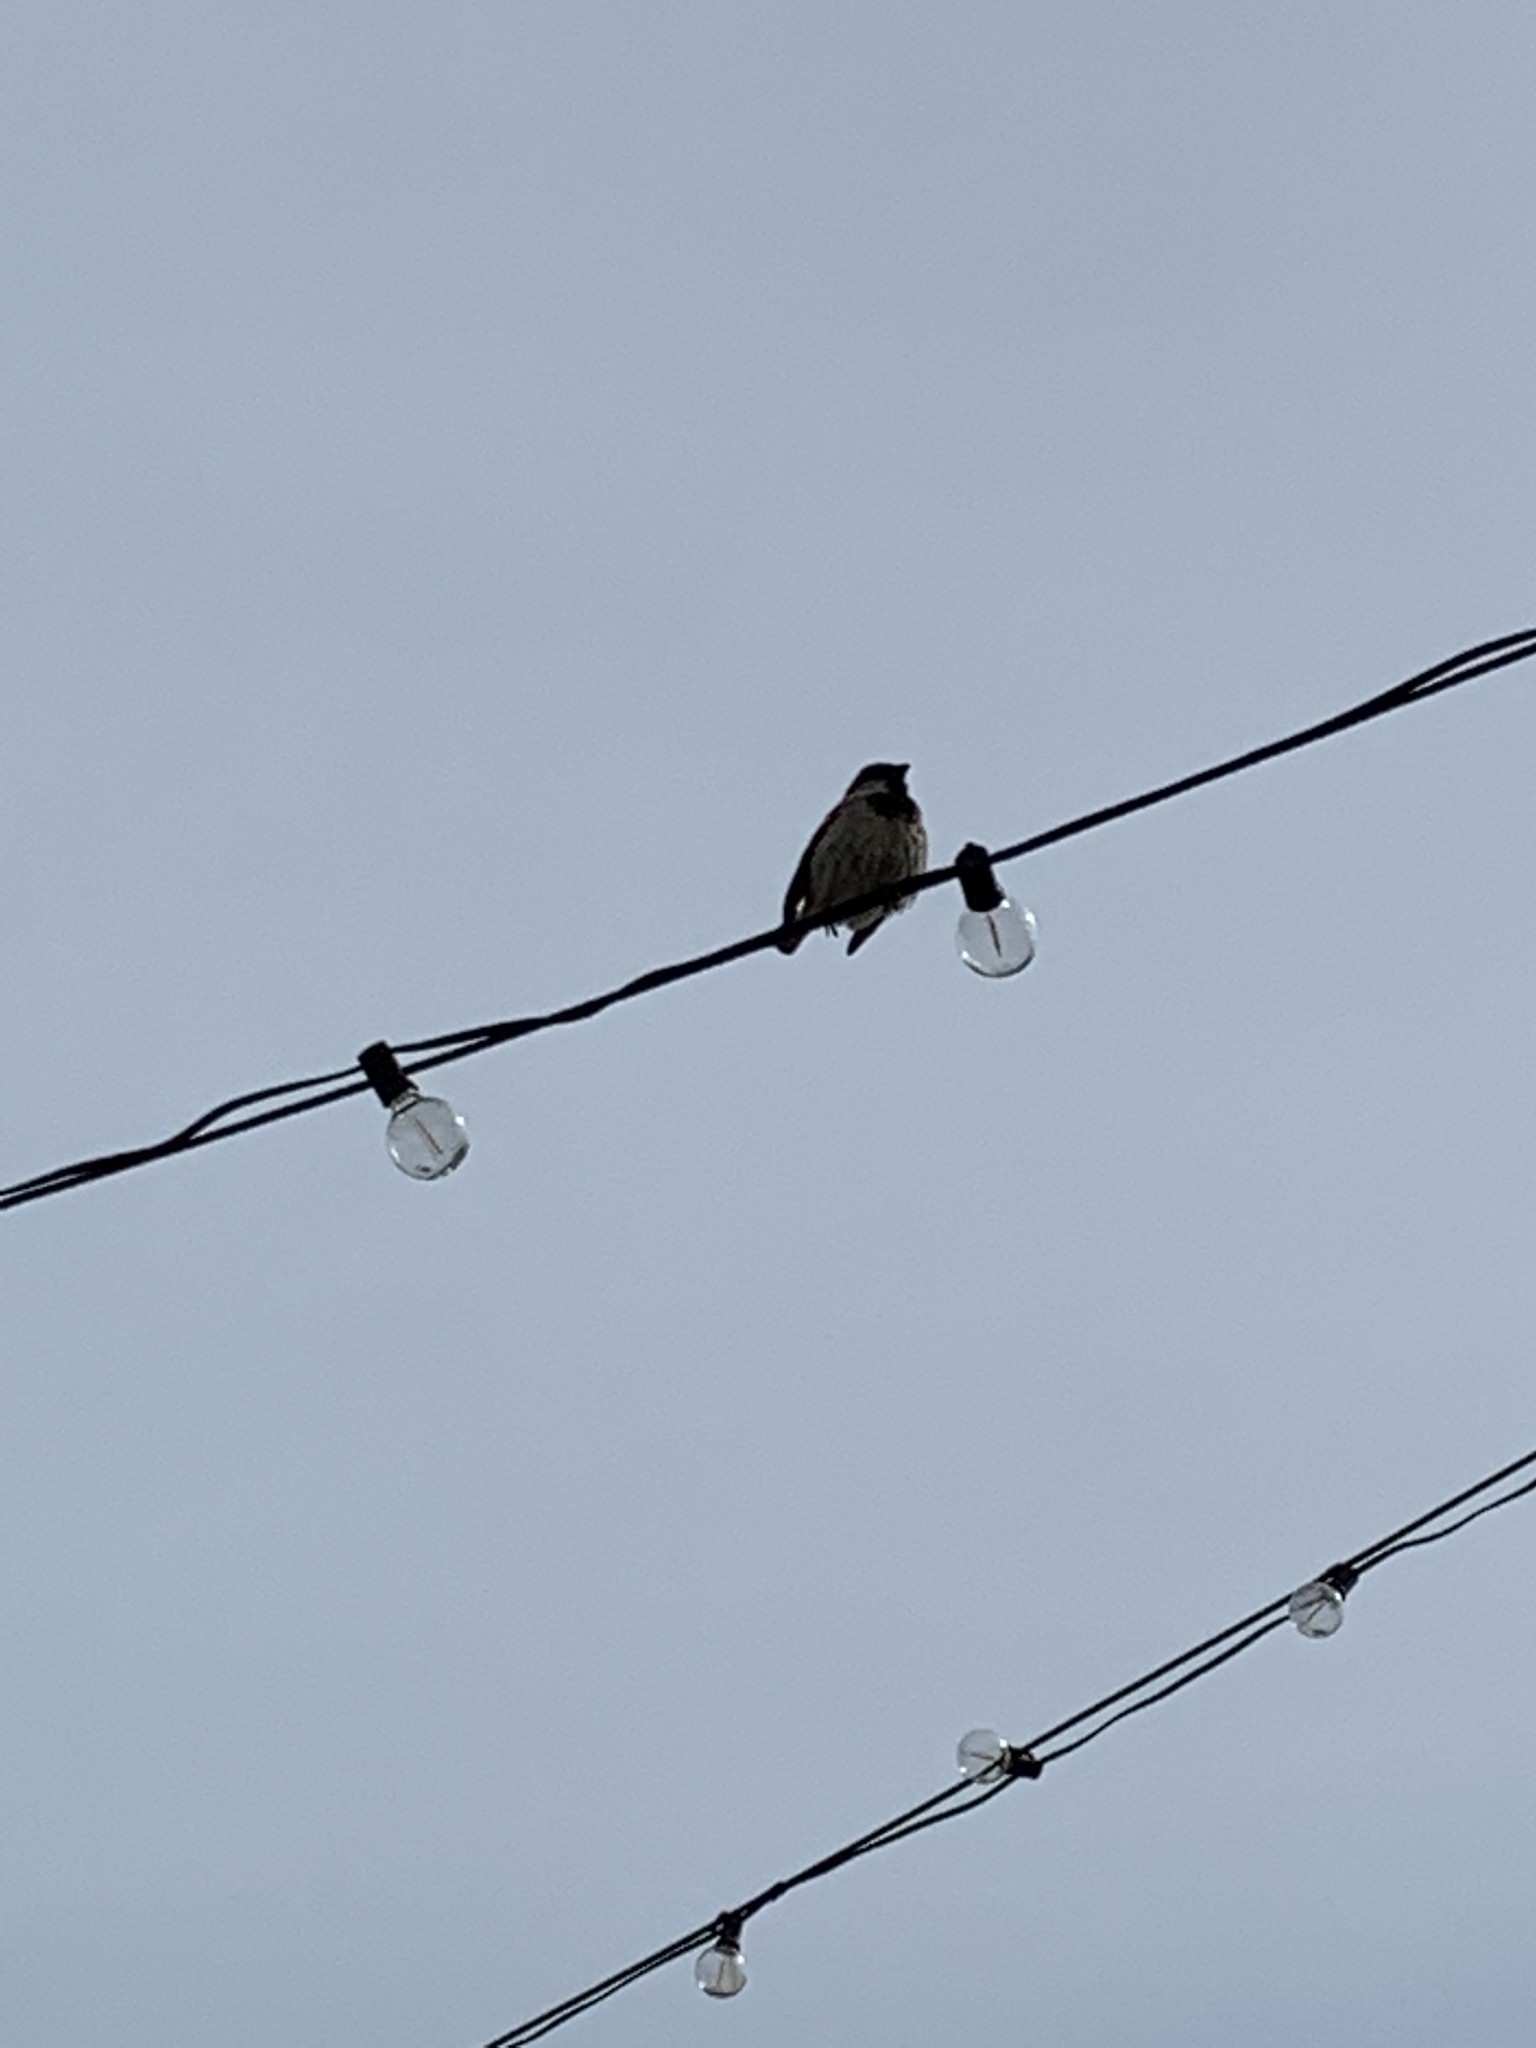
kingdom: Animalia
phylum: Chordata
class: Aves
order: Passeriformes
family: Passeridae
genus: Passer
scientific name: Passer domesticus
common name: House sparrow
